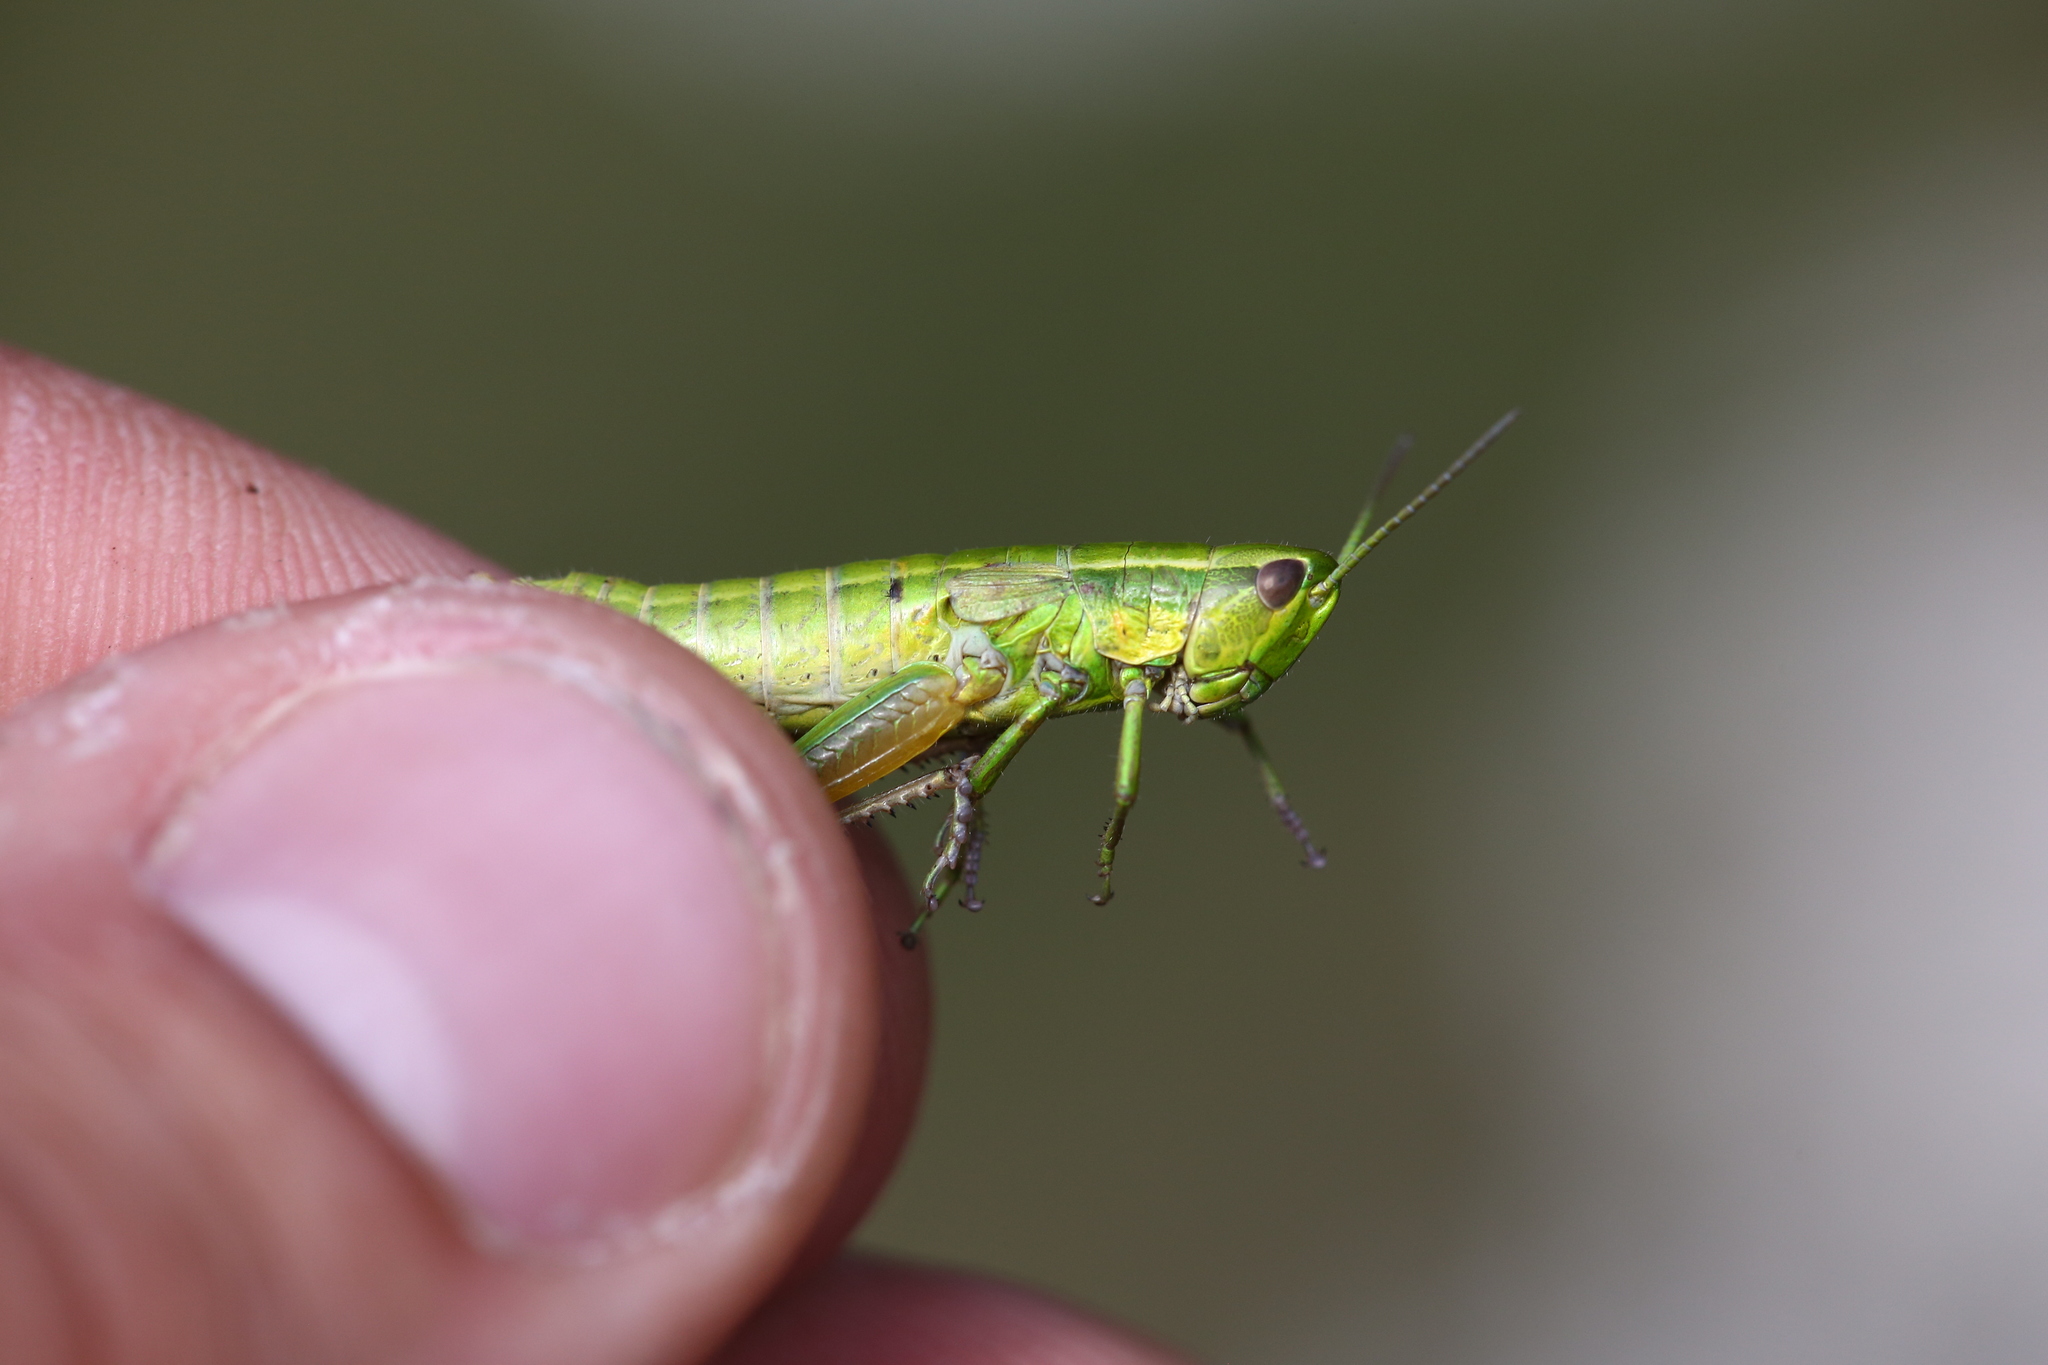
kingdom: Animalia
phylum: Arthropoda
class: Insecta
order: Orthoptera
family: Acrididae
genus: Euthystira
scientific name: Euthystira brachyptera
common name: Small gold grasshopper
